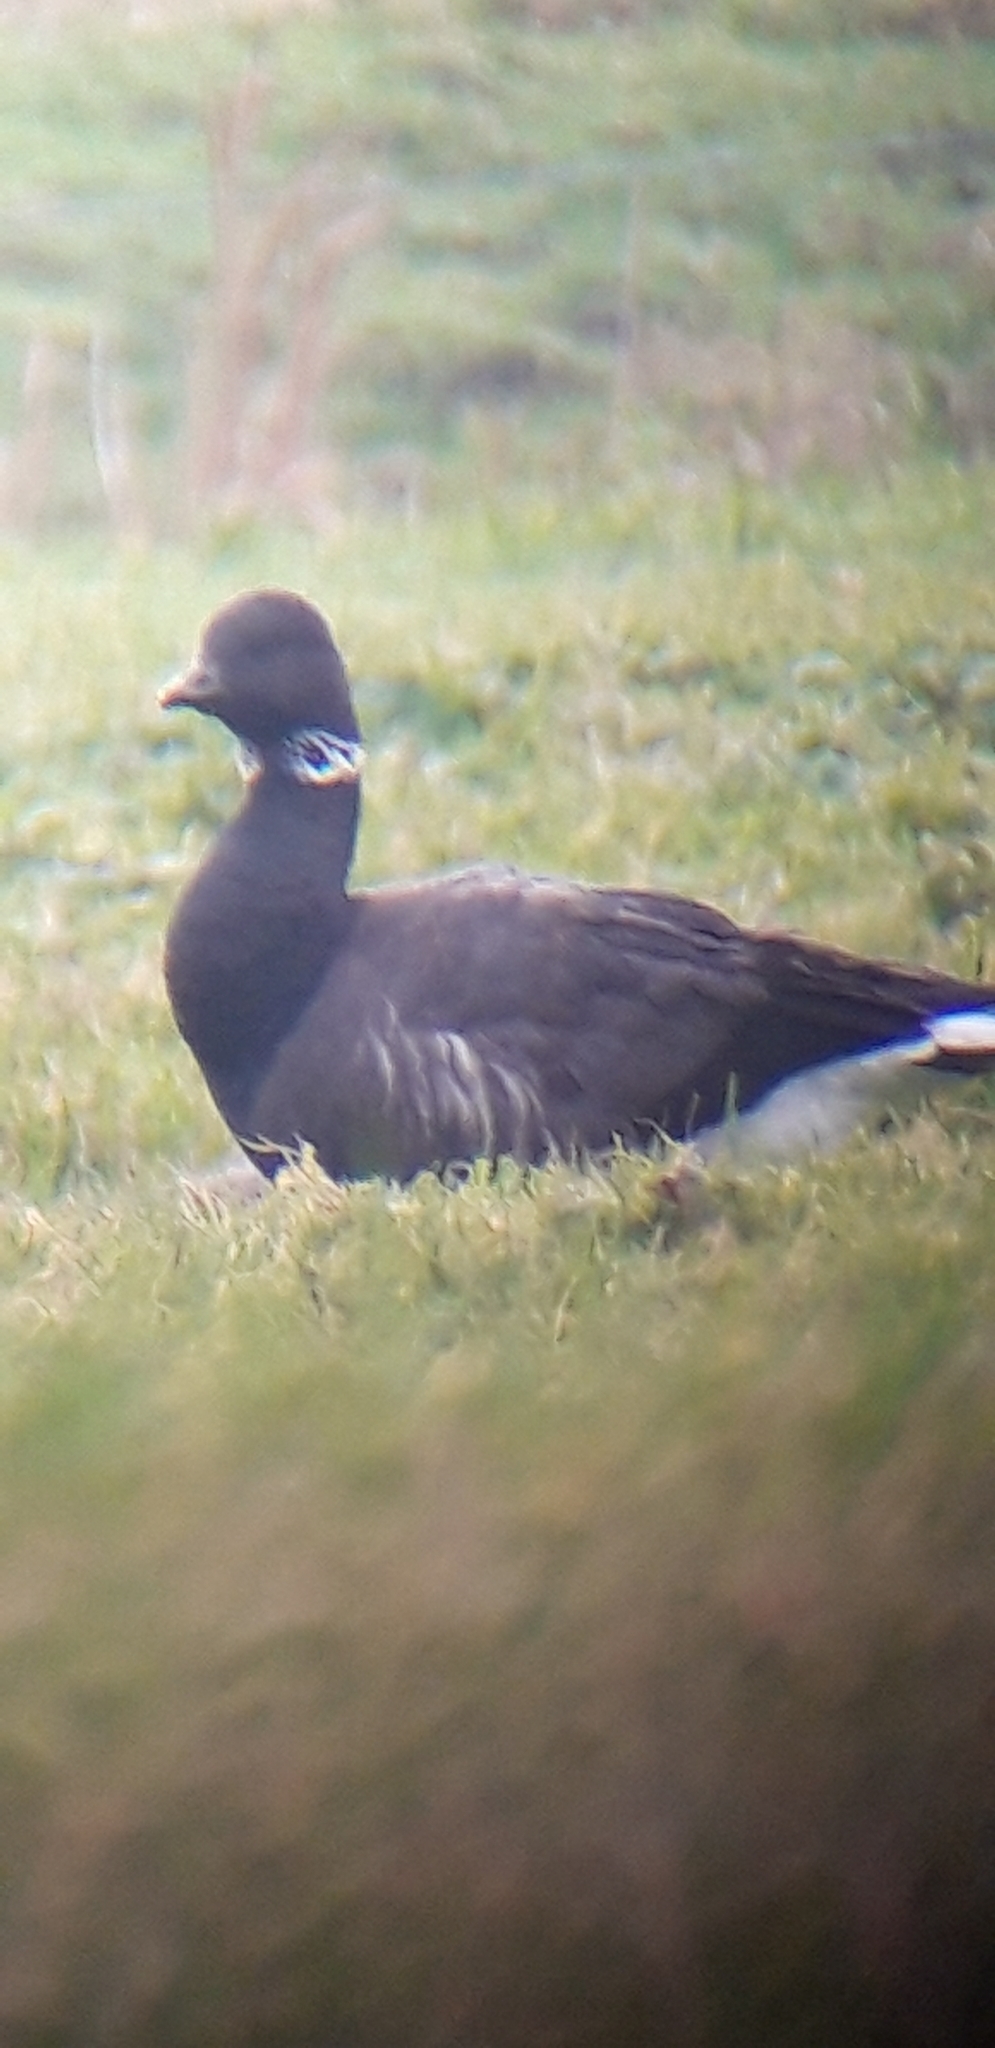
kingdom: Animalia
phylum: Chordata
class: Aves
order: Anseriformes
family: Anatidae
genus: Branta
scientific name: Branta bernicla
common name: Brant goose
